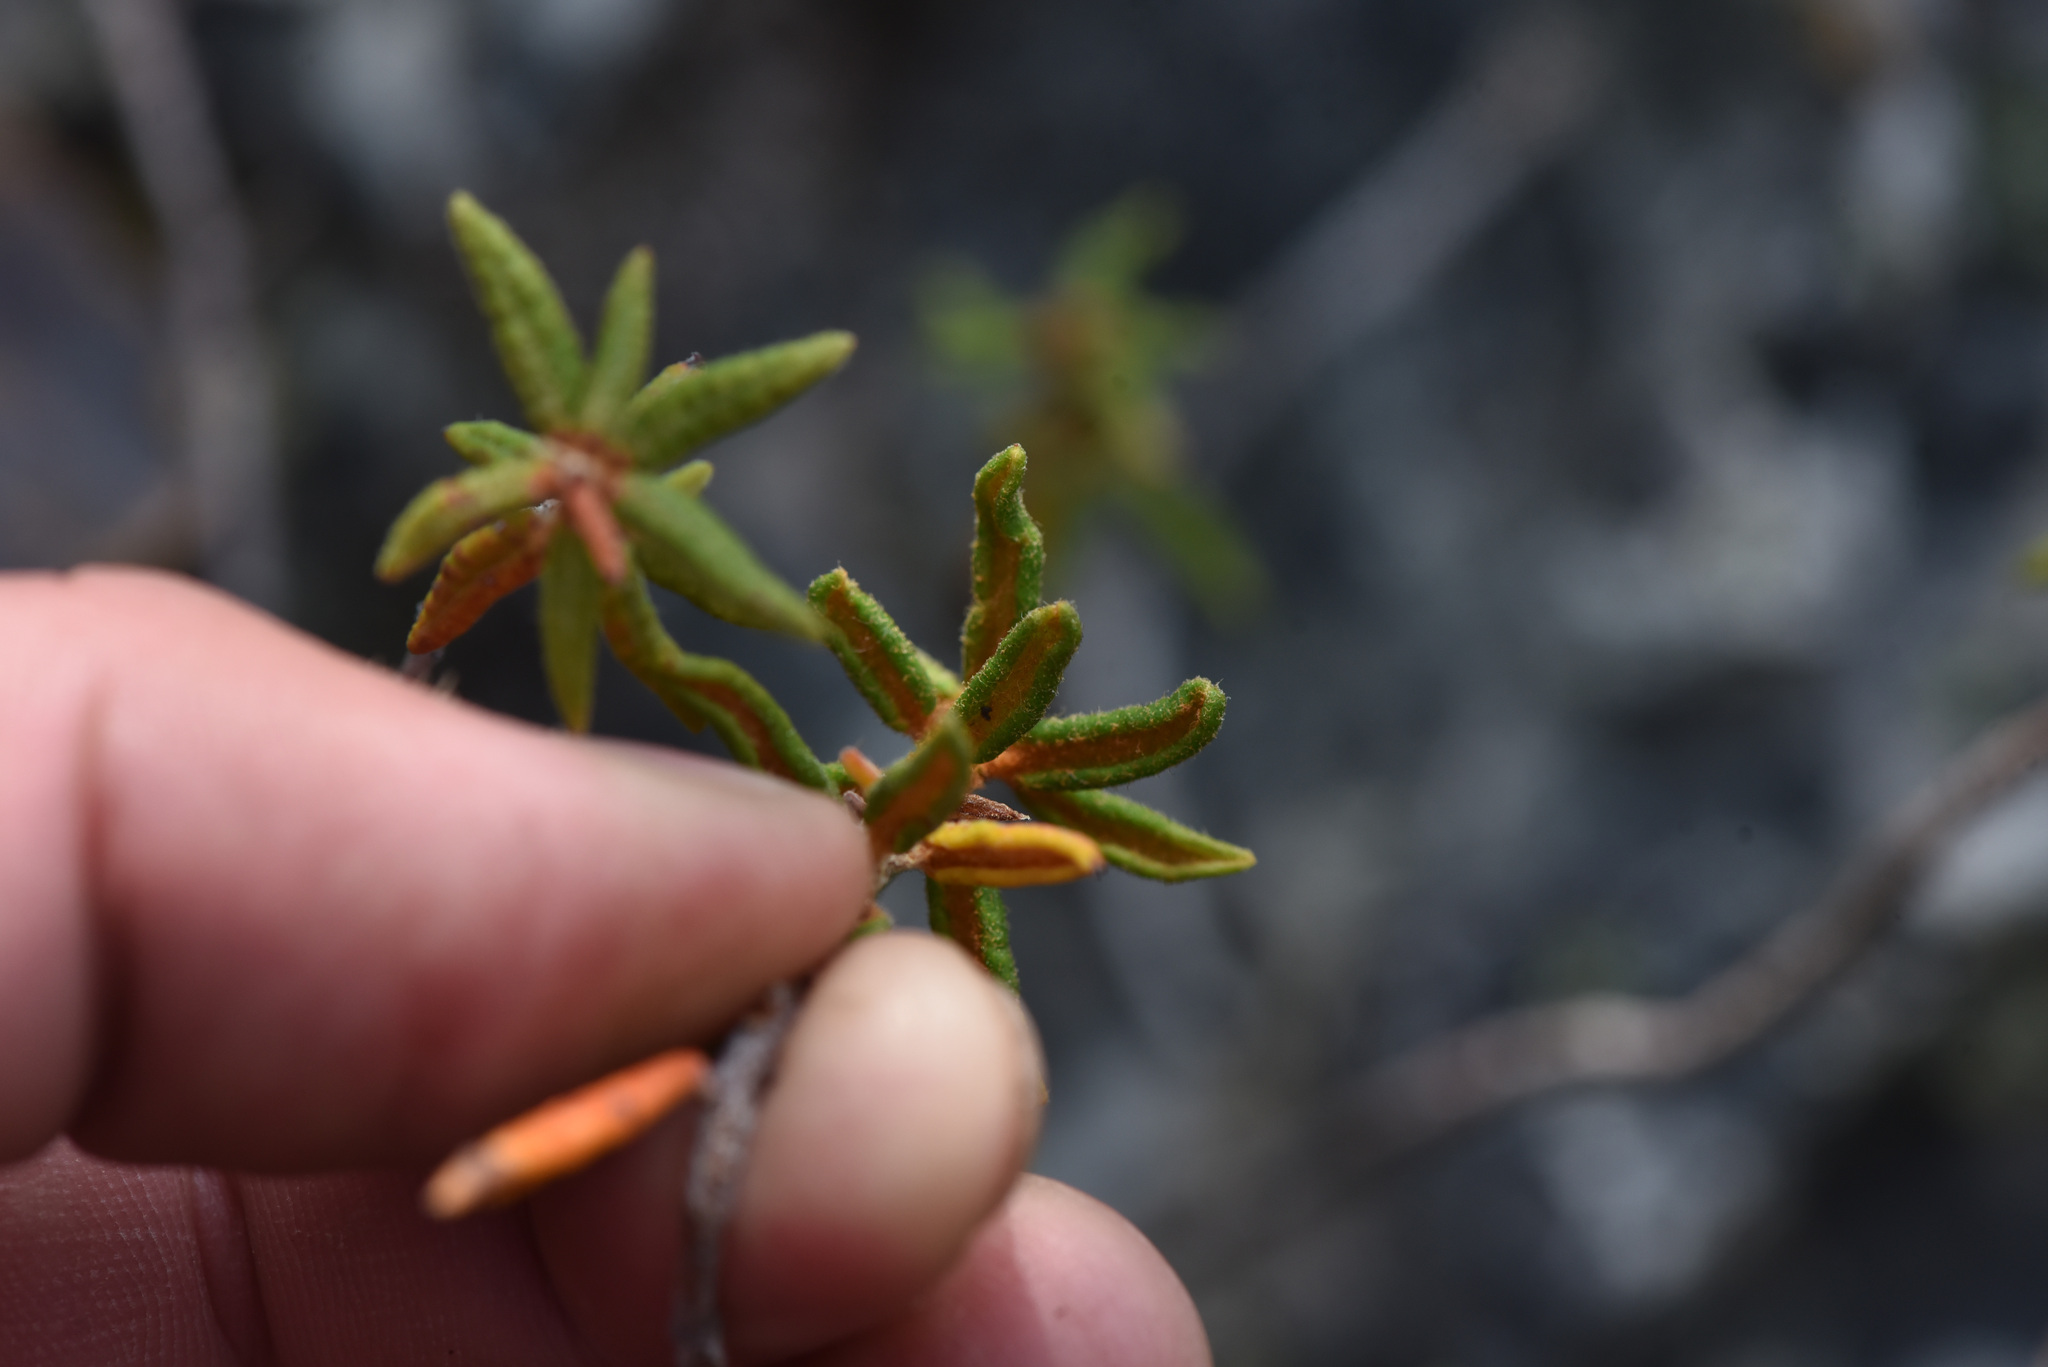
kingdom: Plantae
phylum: Tracheophyta
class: Magnoliopsida
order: Ericales
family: Ericaceae
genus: Rhododendron
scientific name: Rhododendron groenlandicum
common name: Bog labrador tea
